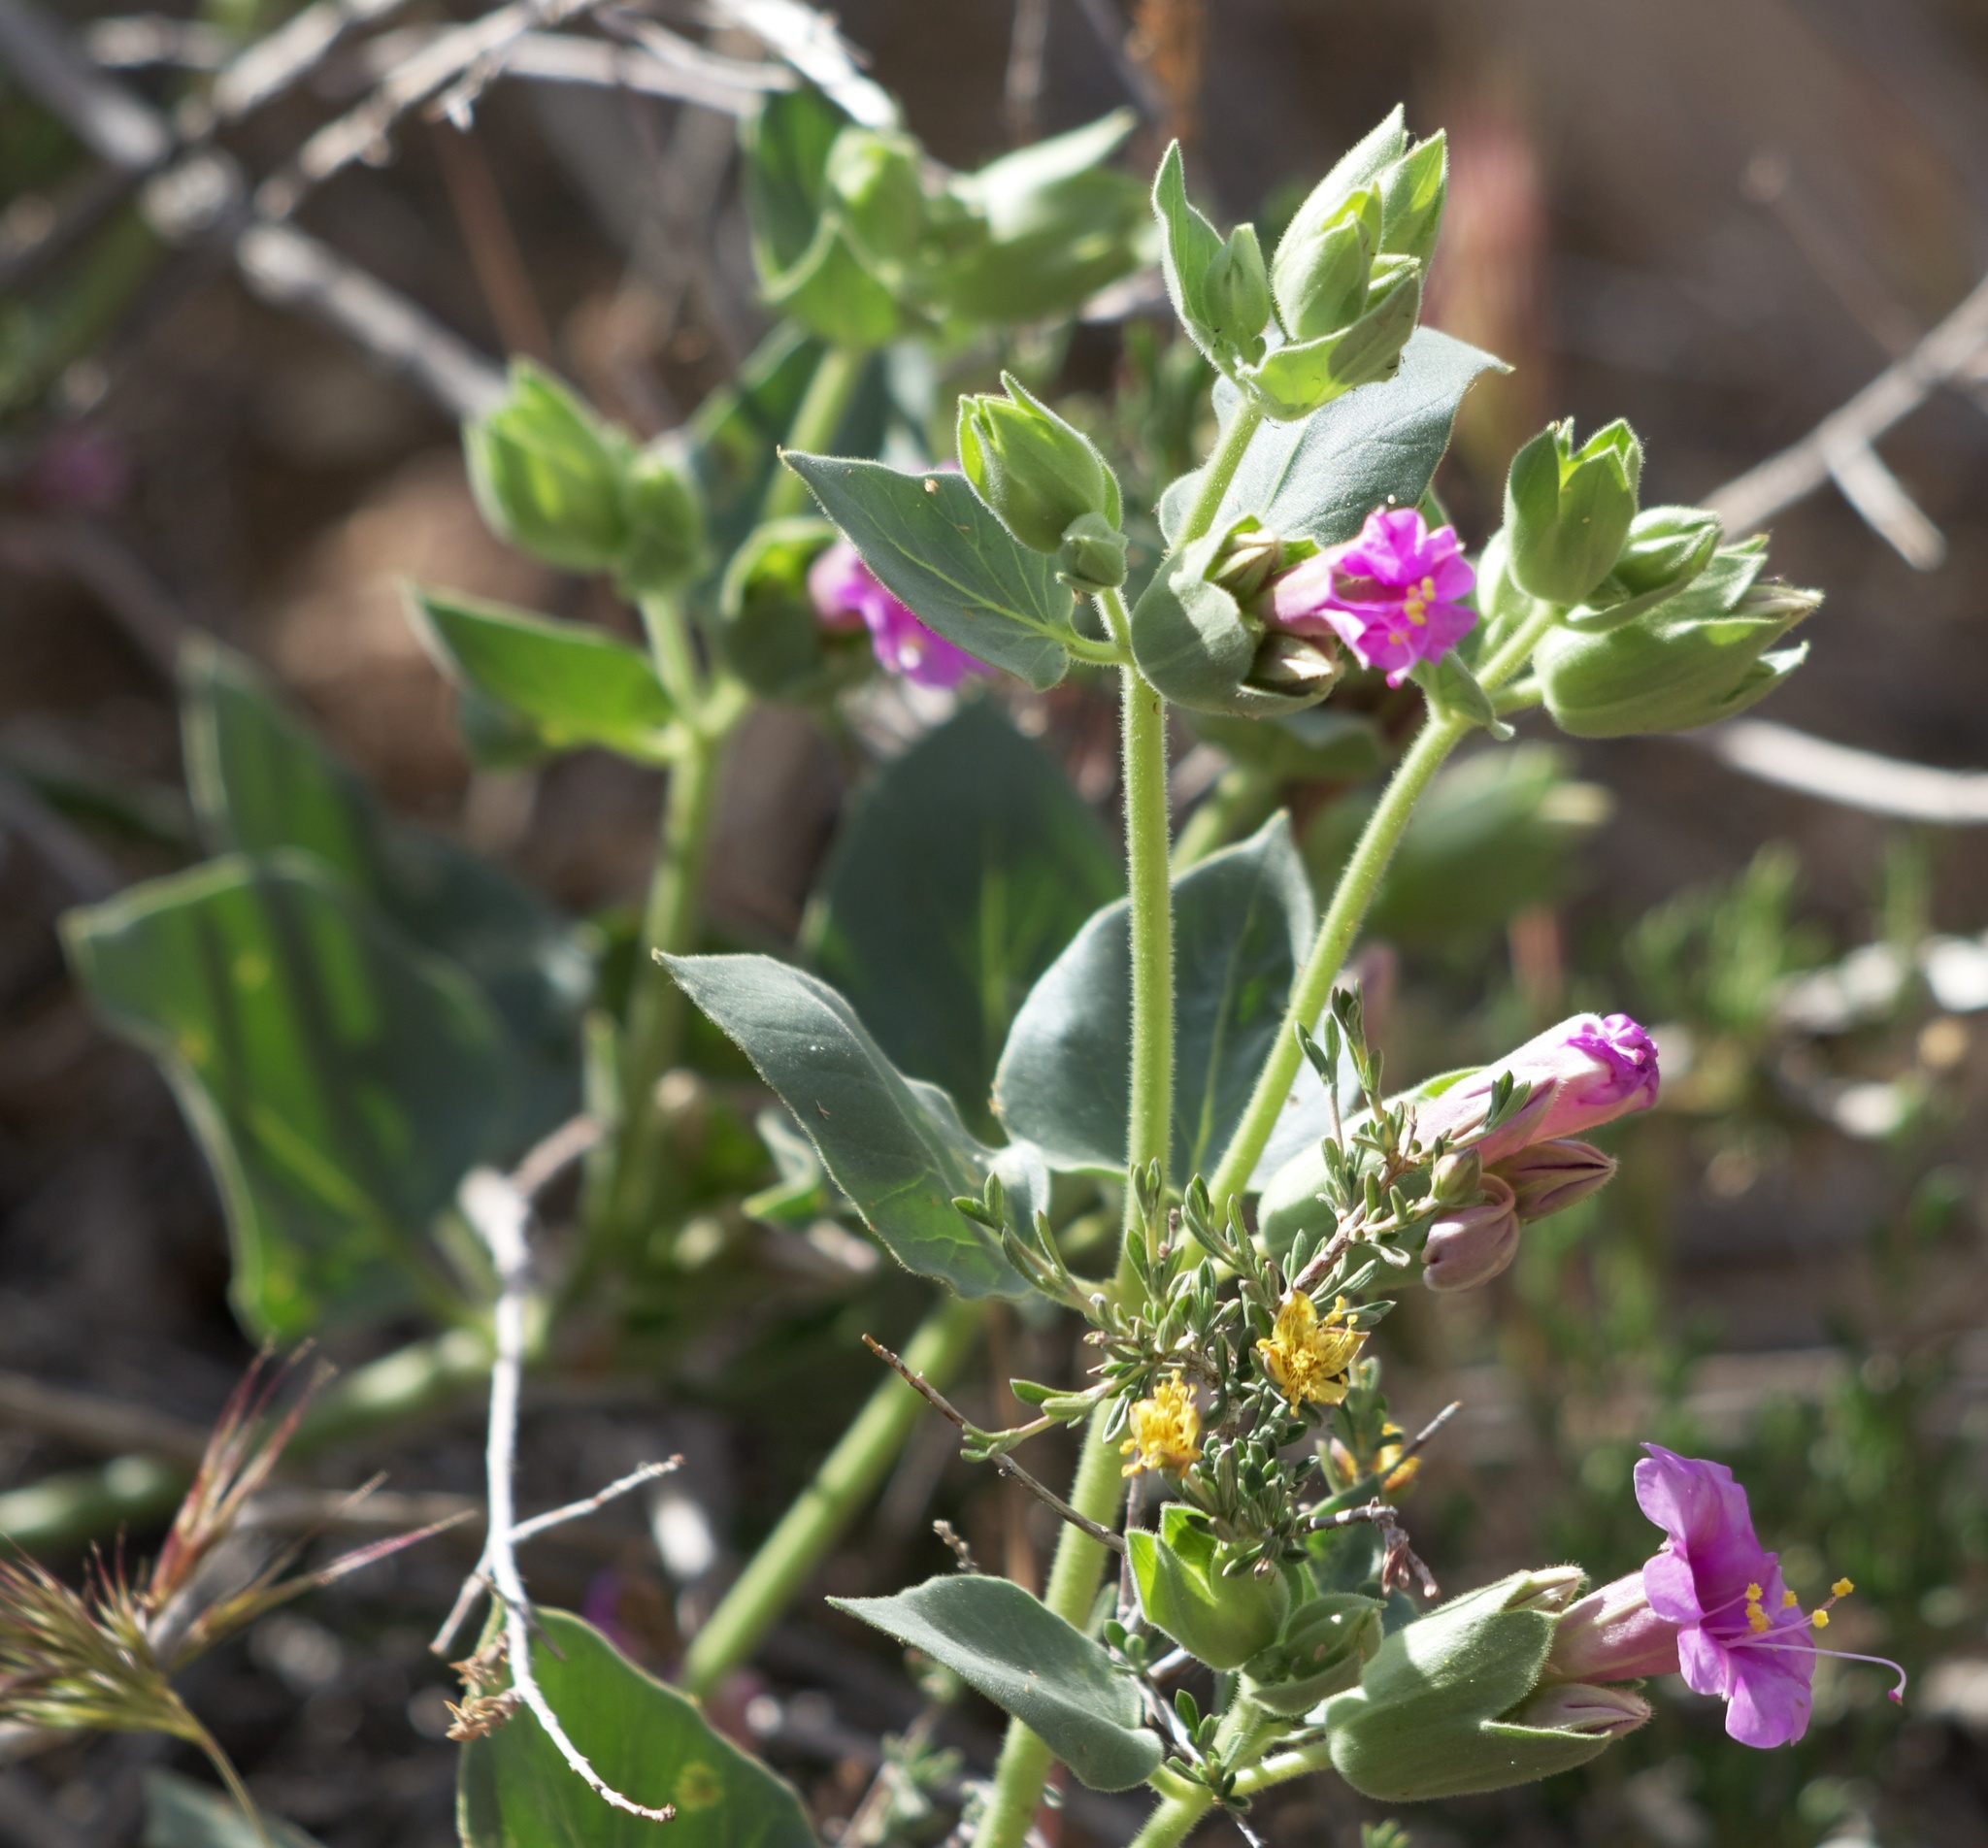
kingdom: Plantae
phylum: Tracheophyta
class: Magnoliopsida
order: Caryophyllales
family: Nyctaginaceae
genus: Mirabilis
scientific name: Mirabilis multiflora
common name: Froebel's four-o'clock
